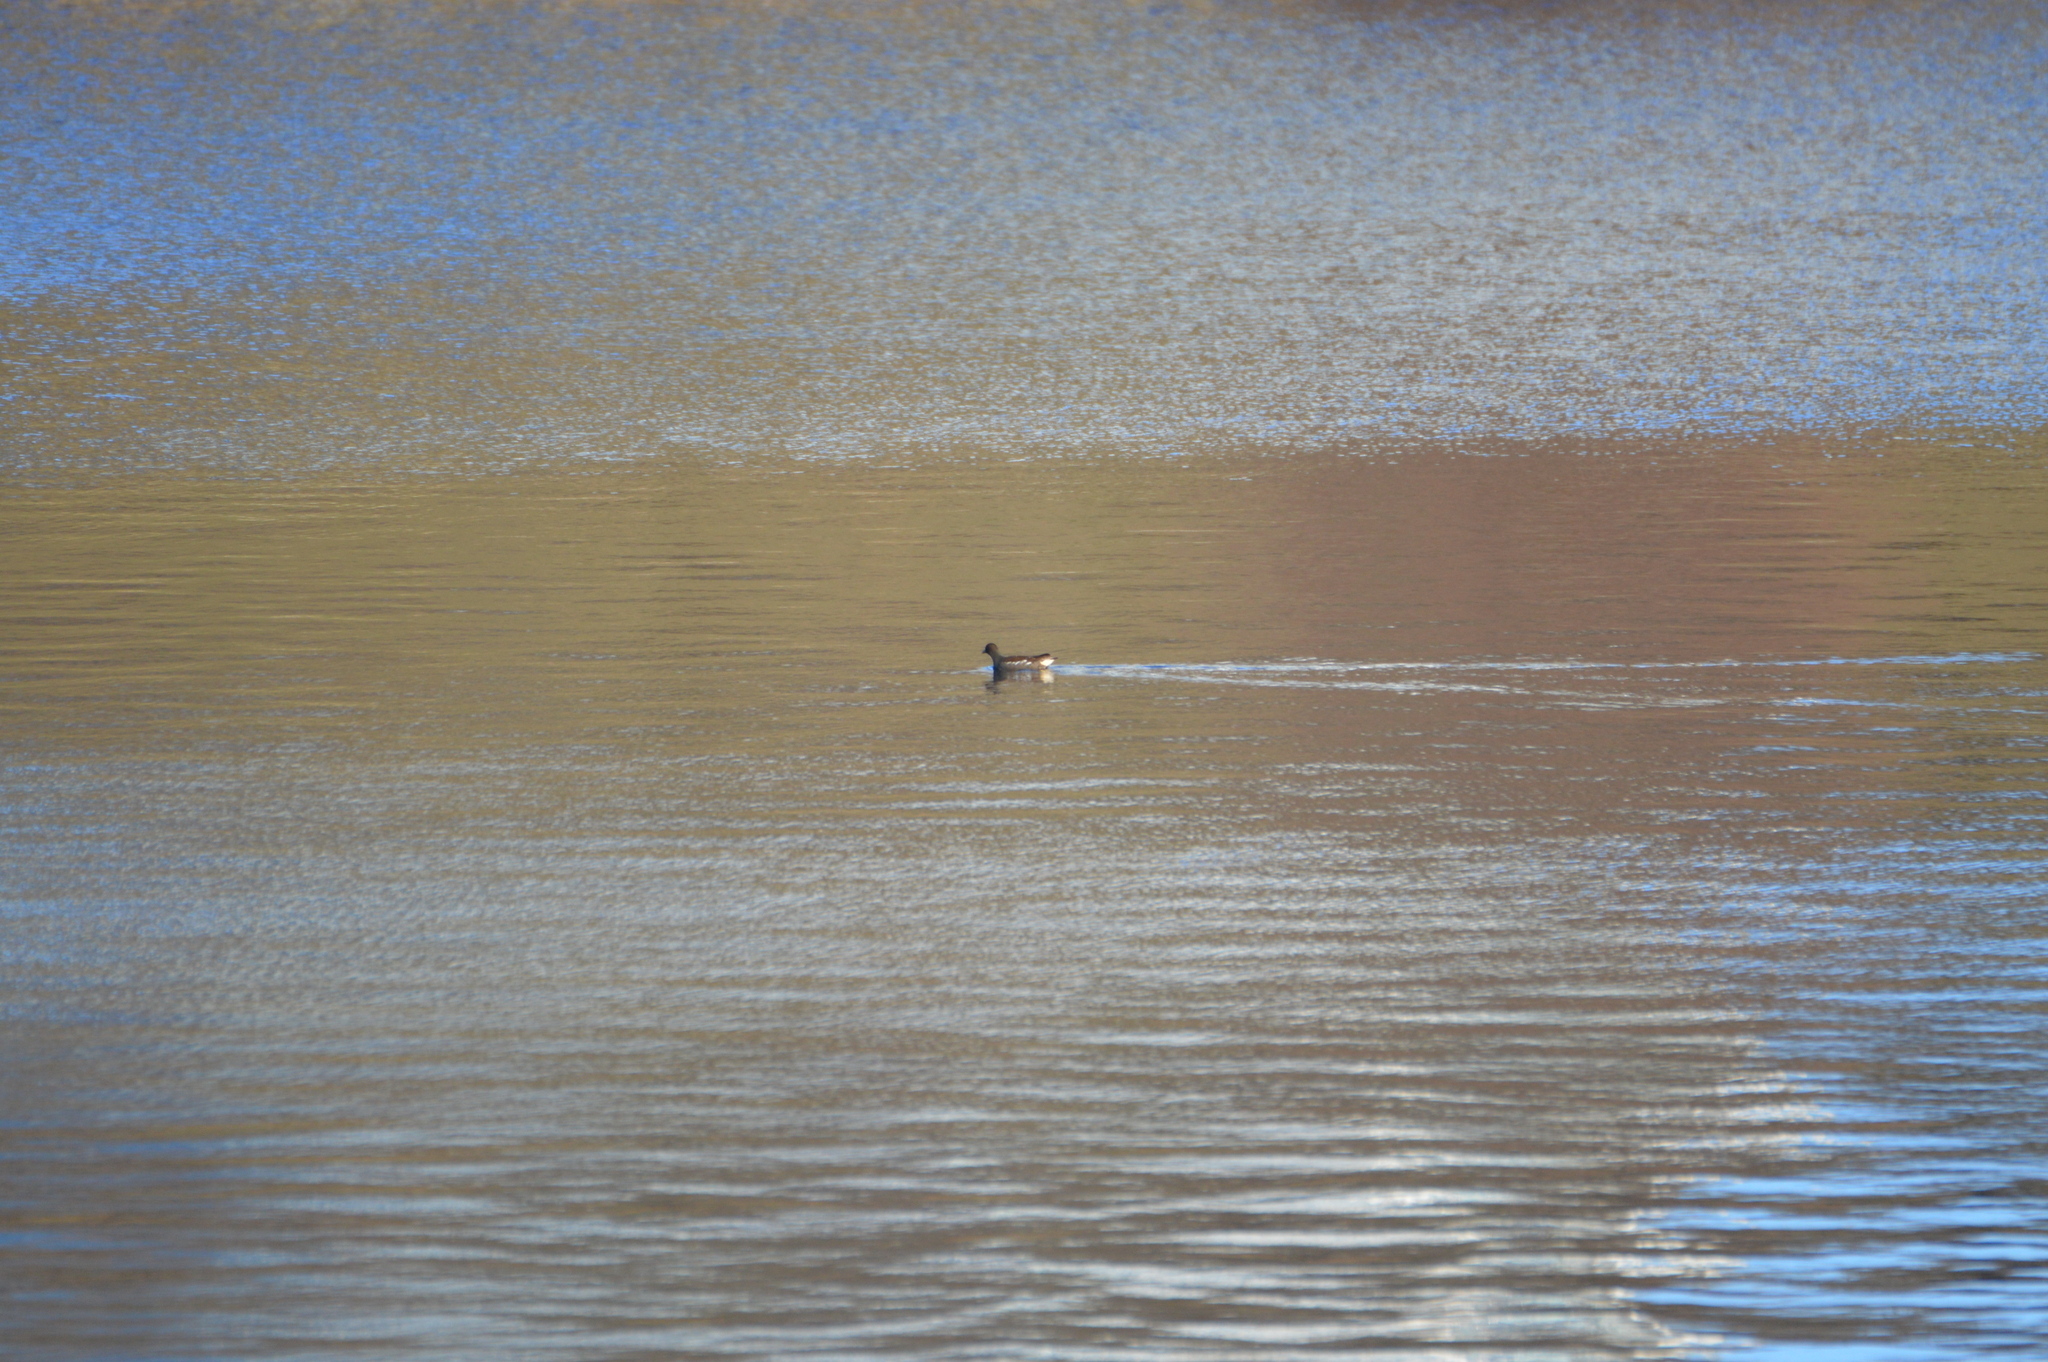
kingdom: Animalia
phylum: Chordata
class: Aves
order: Gruiformes
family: Rallidae
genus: Gallinula
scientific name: Gallinula chloropus
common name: Common moorhen
